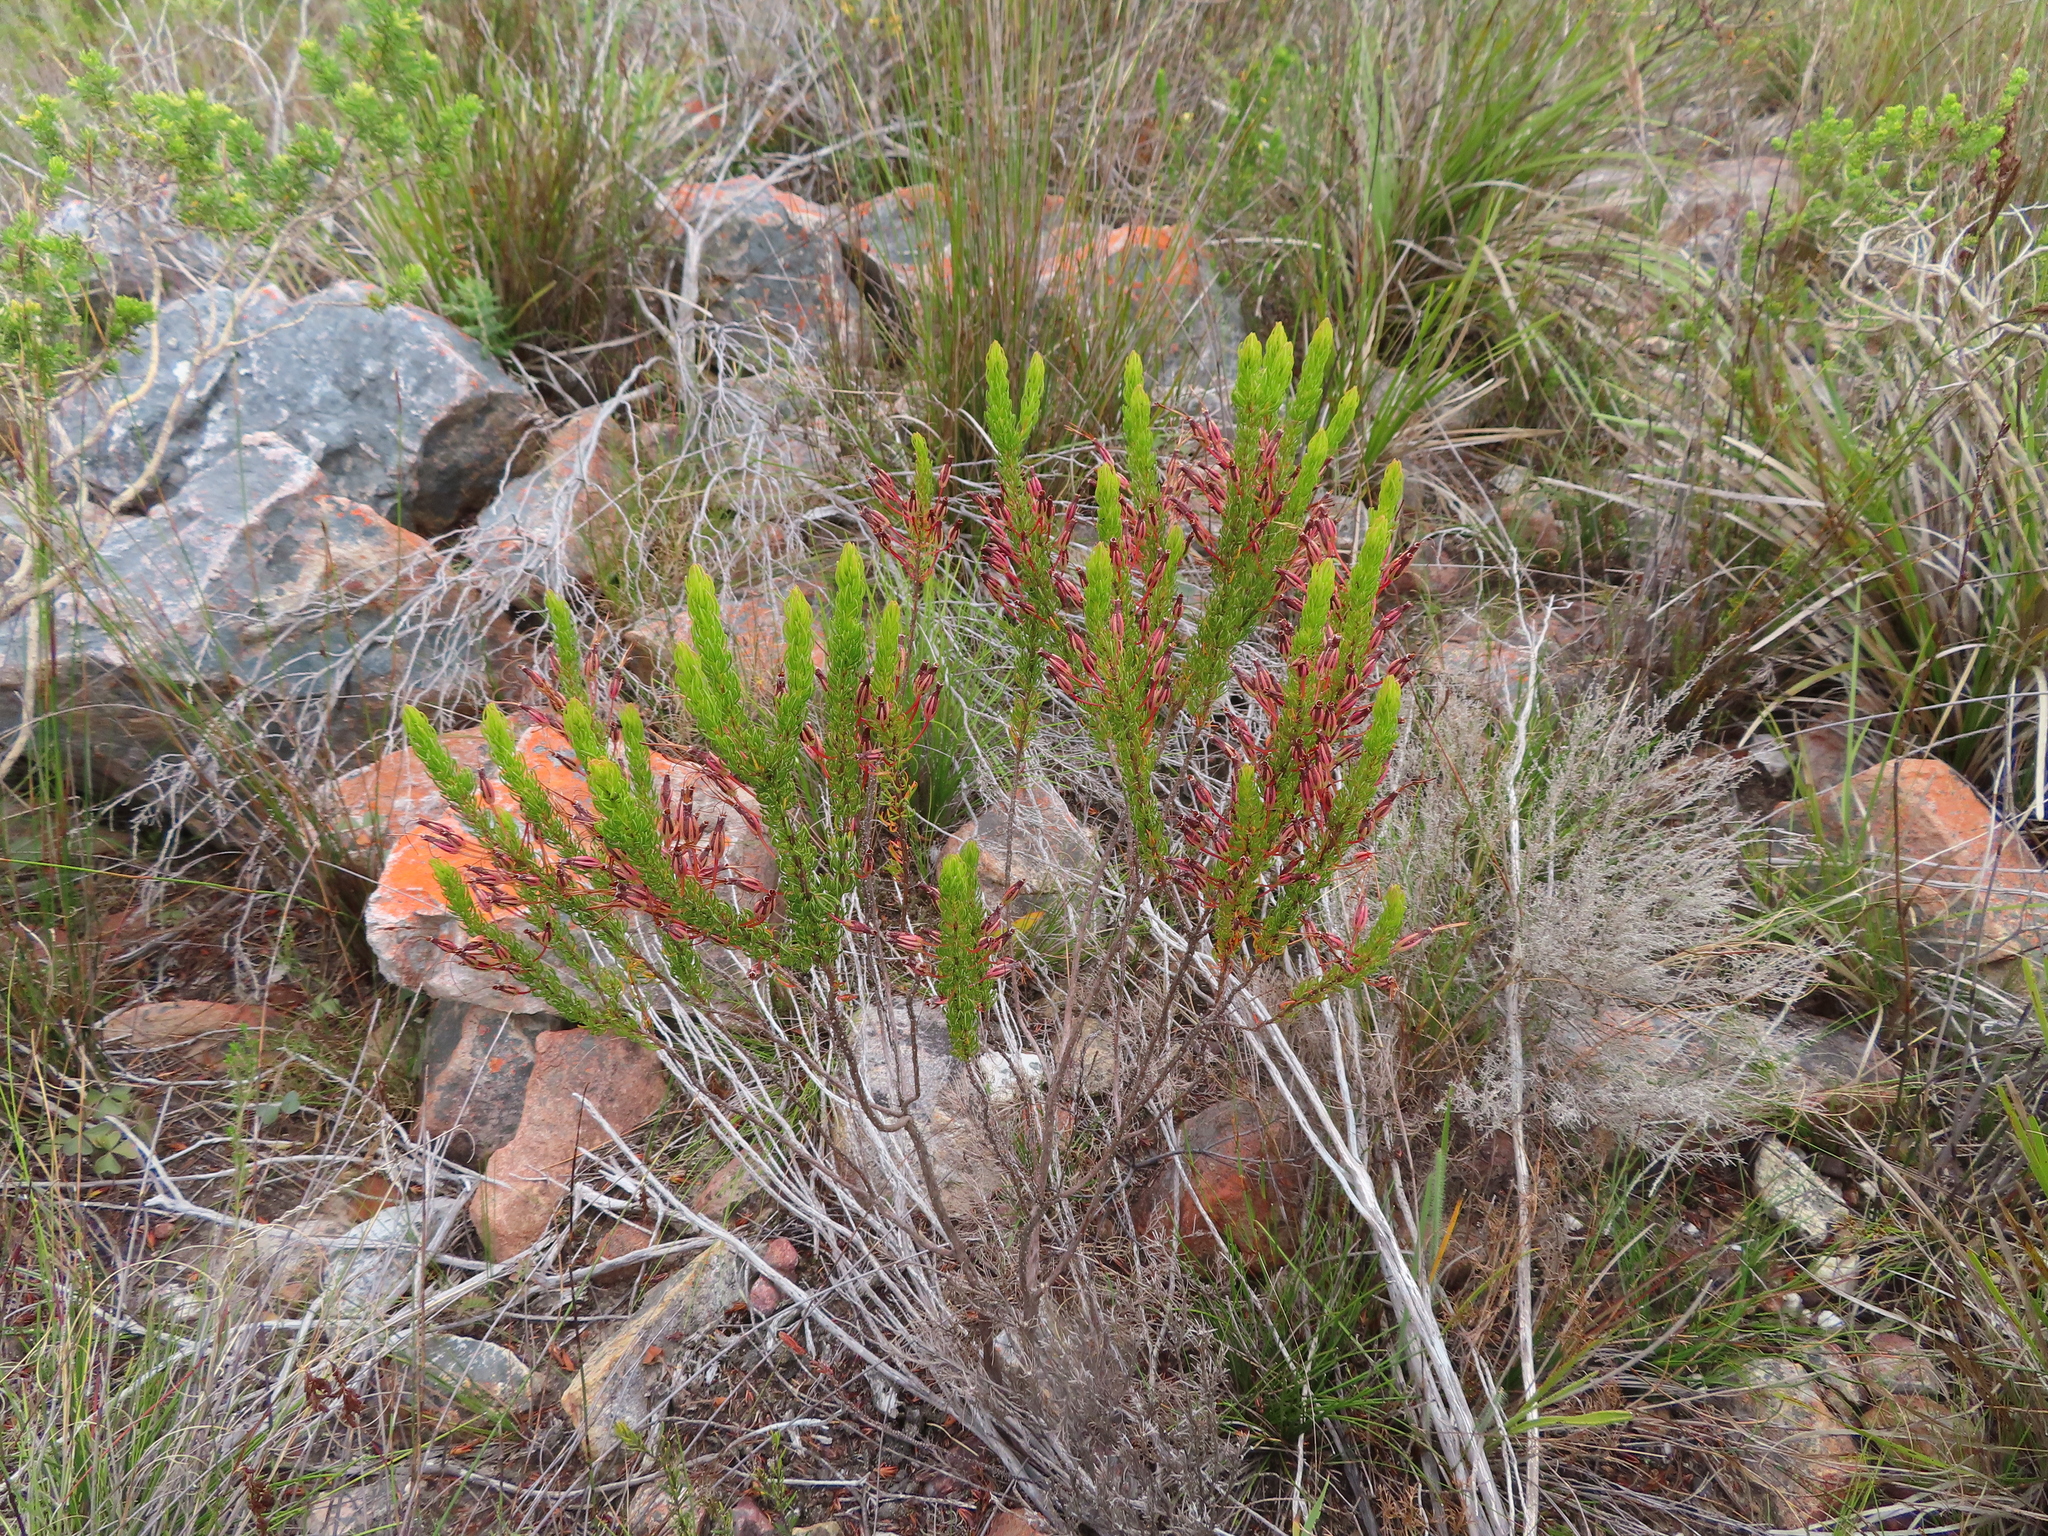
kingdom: Plantae
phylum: Tracheophyta
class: Magnoliopsida
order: Ericales
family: Ericaceae
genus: Erica
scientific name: Erica plukenetii
